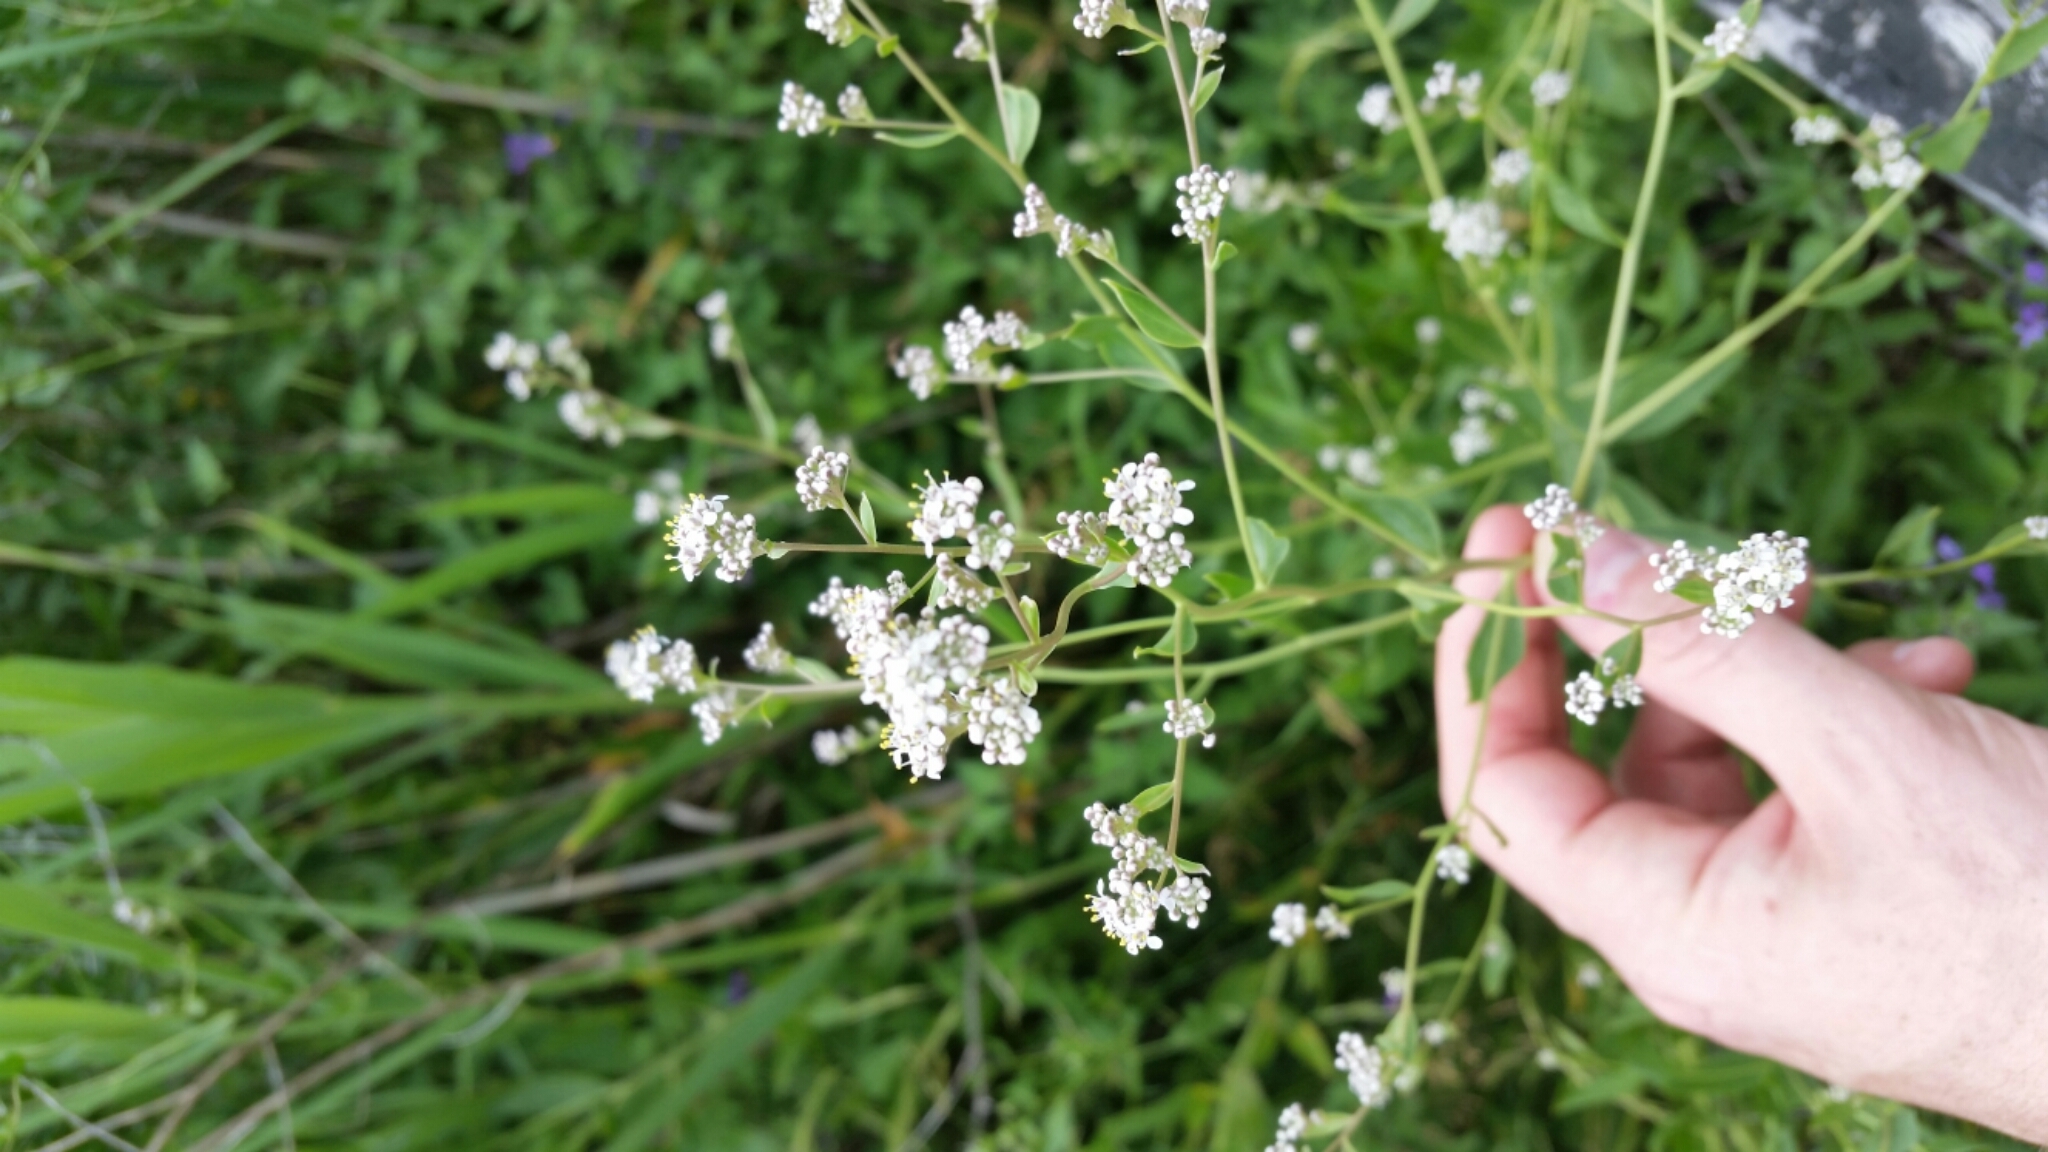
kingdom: Plantae
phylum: Tracheophyta
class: Magnoliopsida
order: Brassicales
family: Brassicaceae
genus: Lepidium
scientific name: Lepidium latifolium
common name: Dittander
